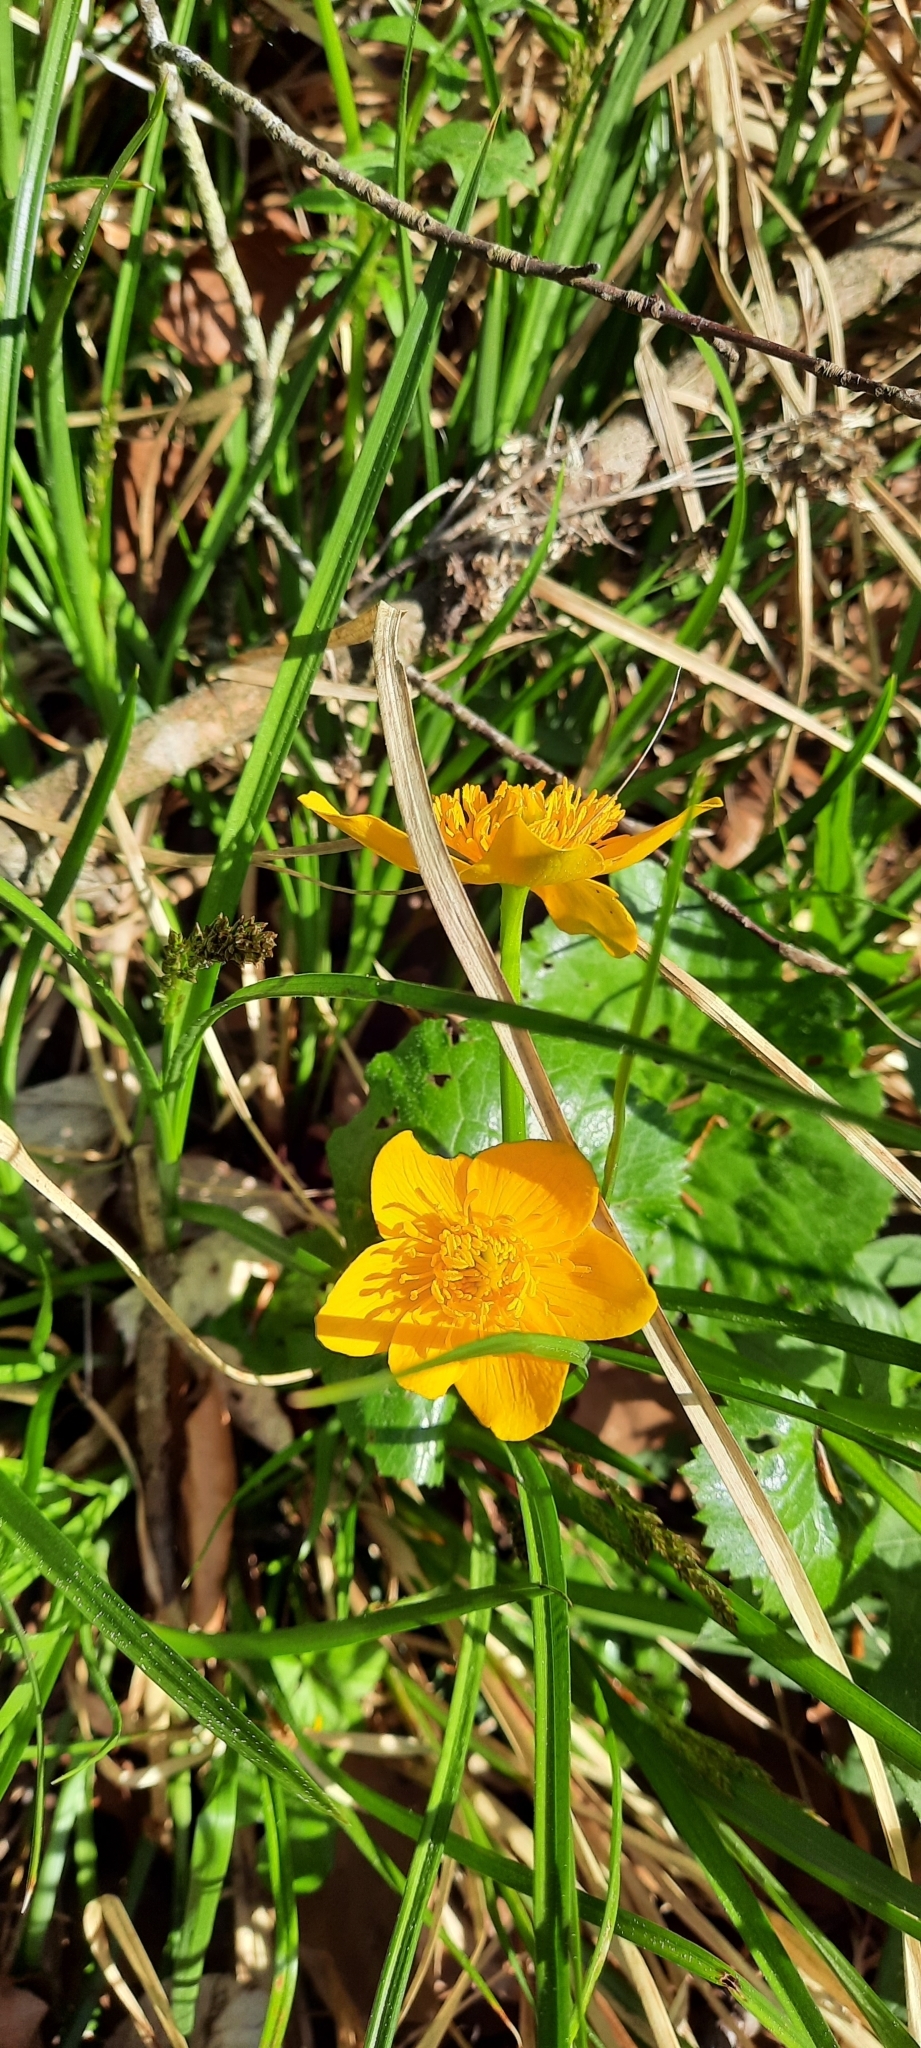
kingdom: Plantae
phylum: Tracheophyta
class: Magnoliopsida
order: Ranunculales
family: Ranunculaceae
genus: Caltha
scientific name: Caltha palustris
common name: Marsh marigold
